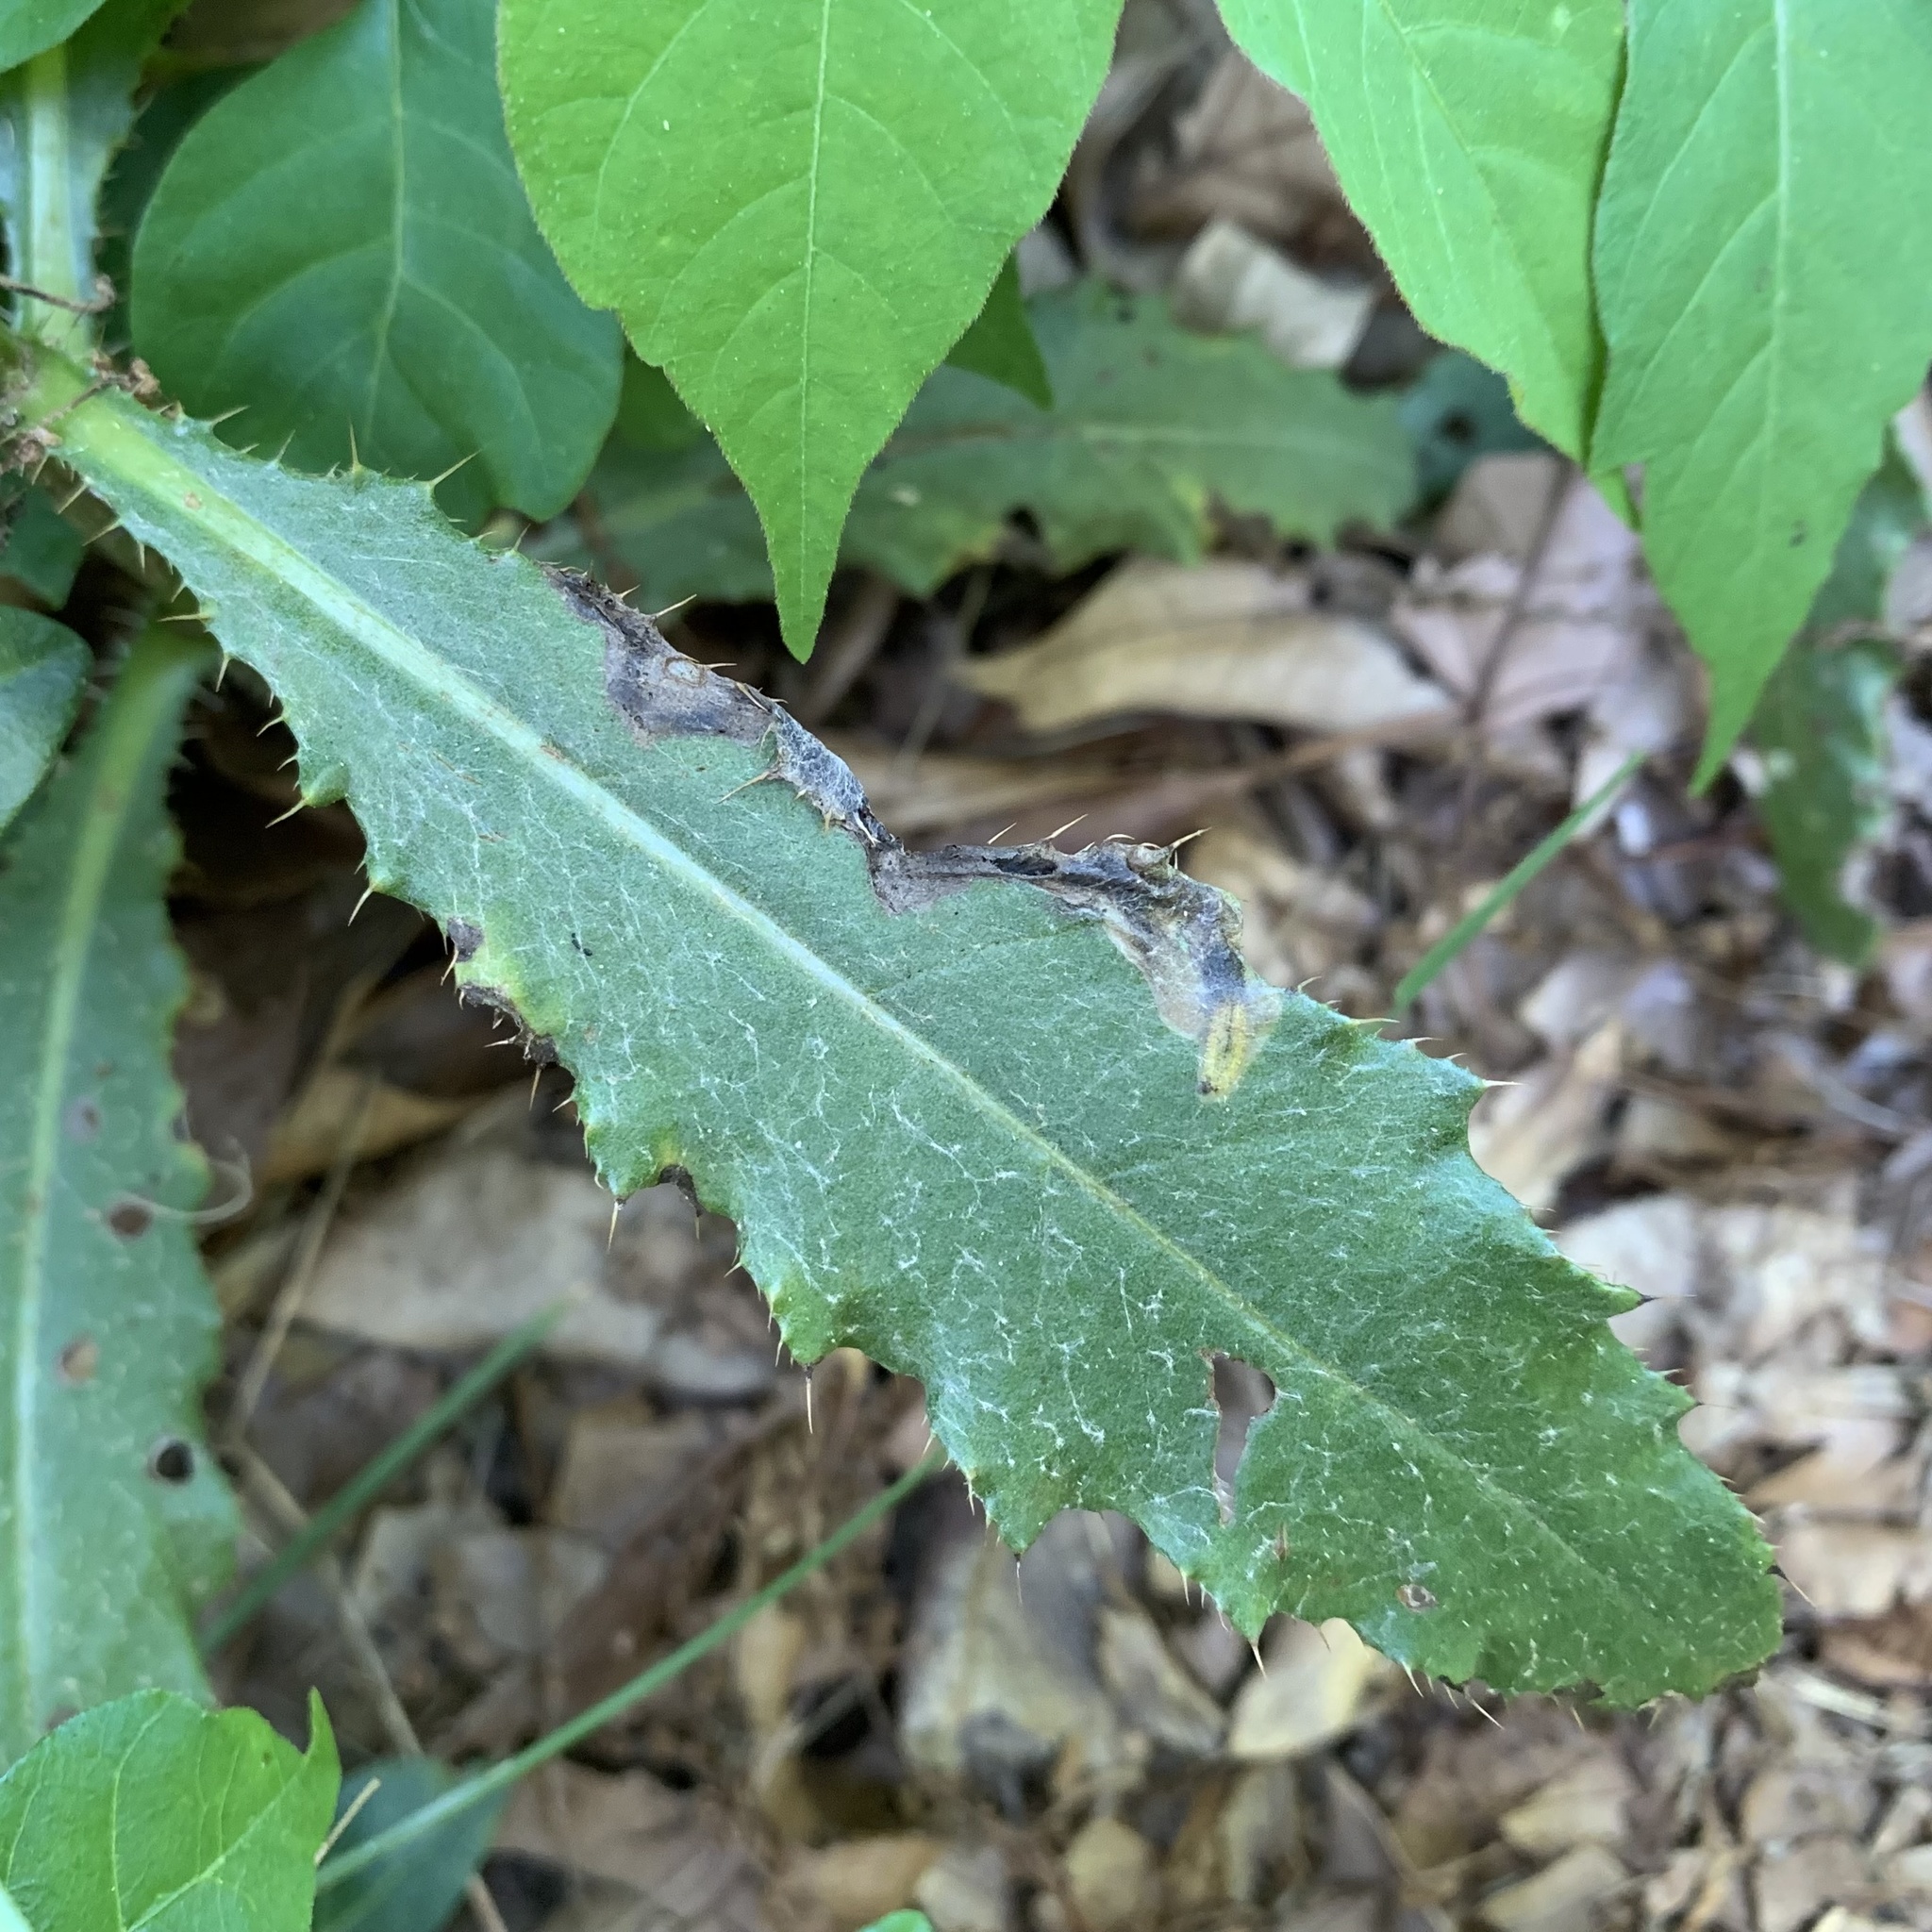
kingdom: Animalia
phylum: Arthropoda
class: Insecta
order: Coleoptera
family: Chrysomelidae
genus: Oulema
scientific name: Oulema palustris
